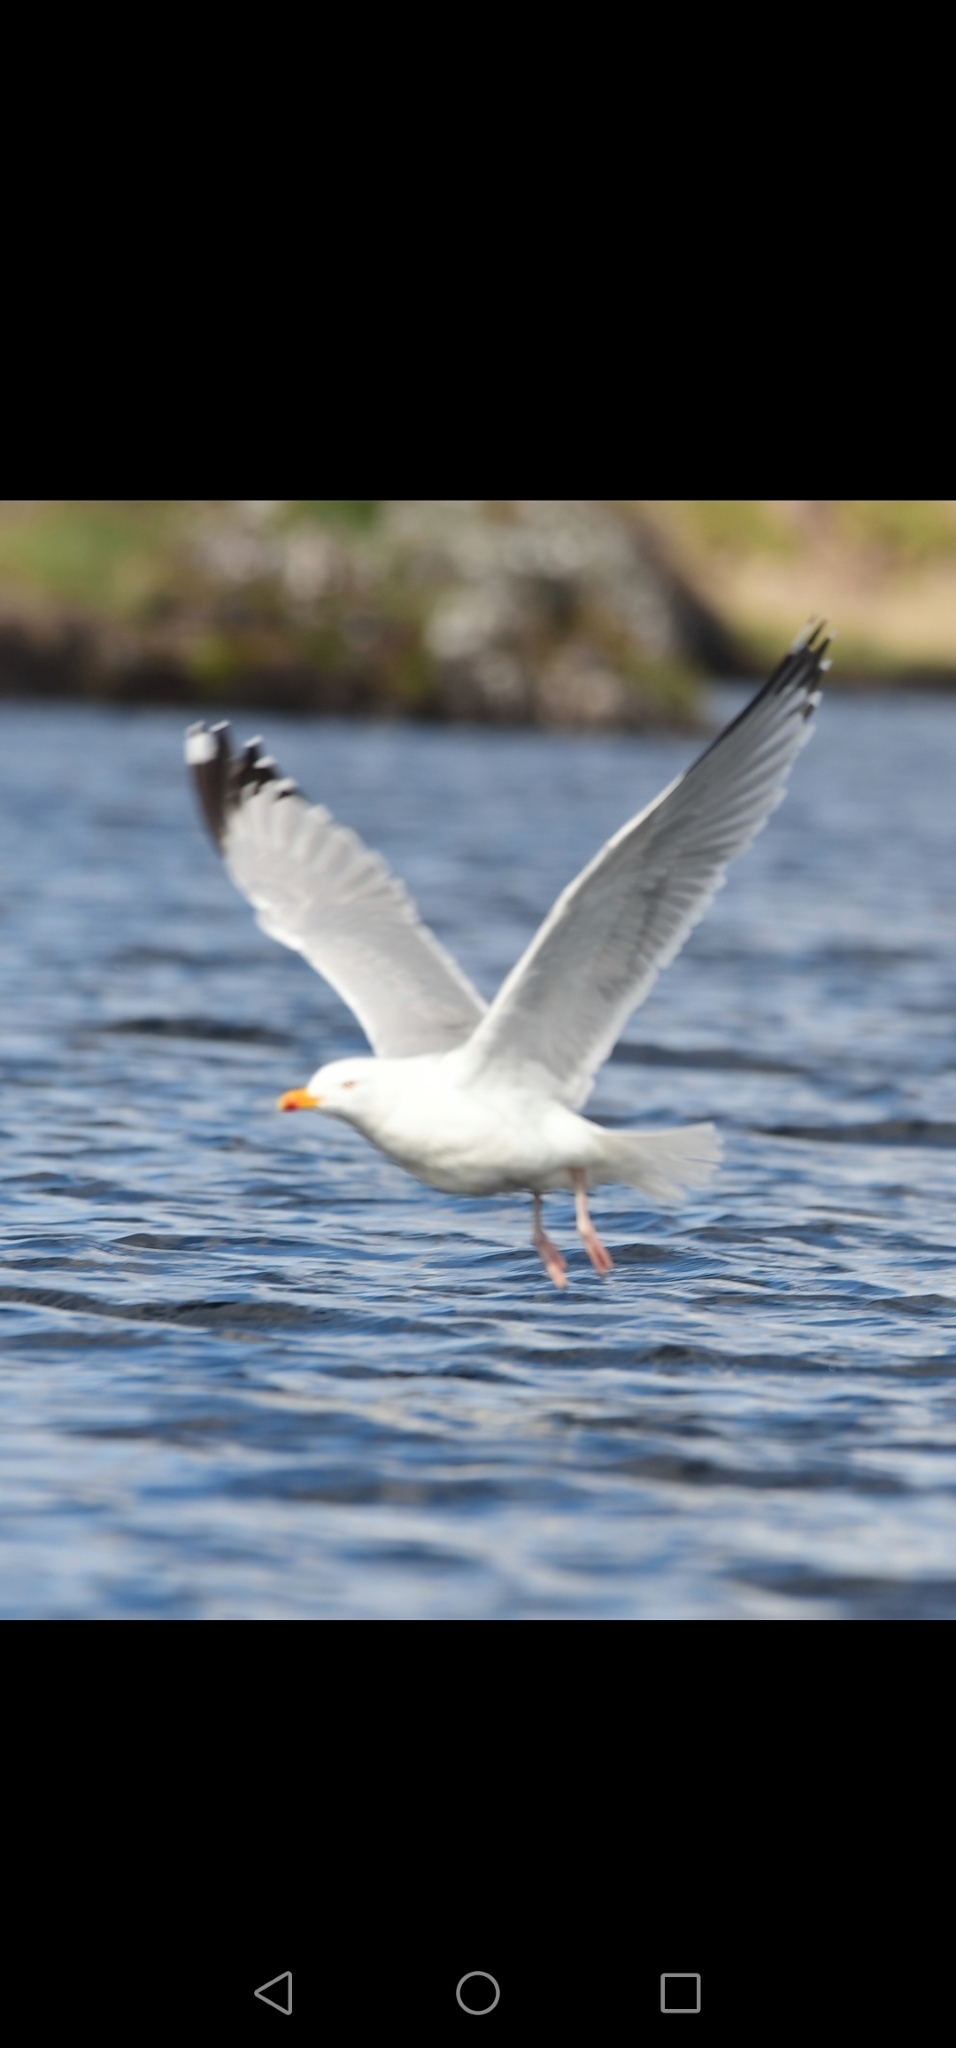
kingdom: Animalia
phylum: Chordata
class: Aves
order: Charadriiformes
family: Laridae
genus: Larus
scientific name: Larus argentatus
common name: Herring gull
